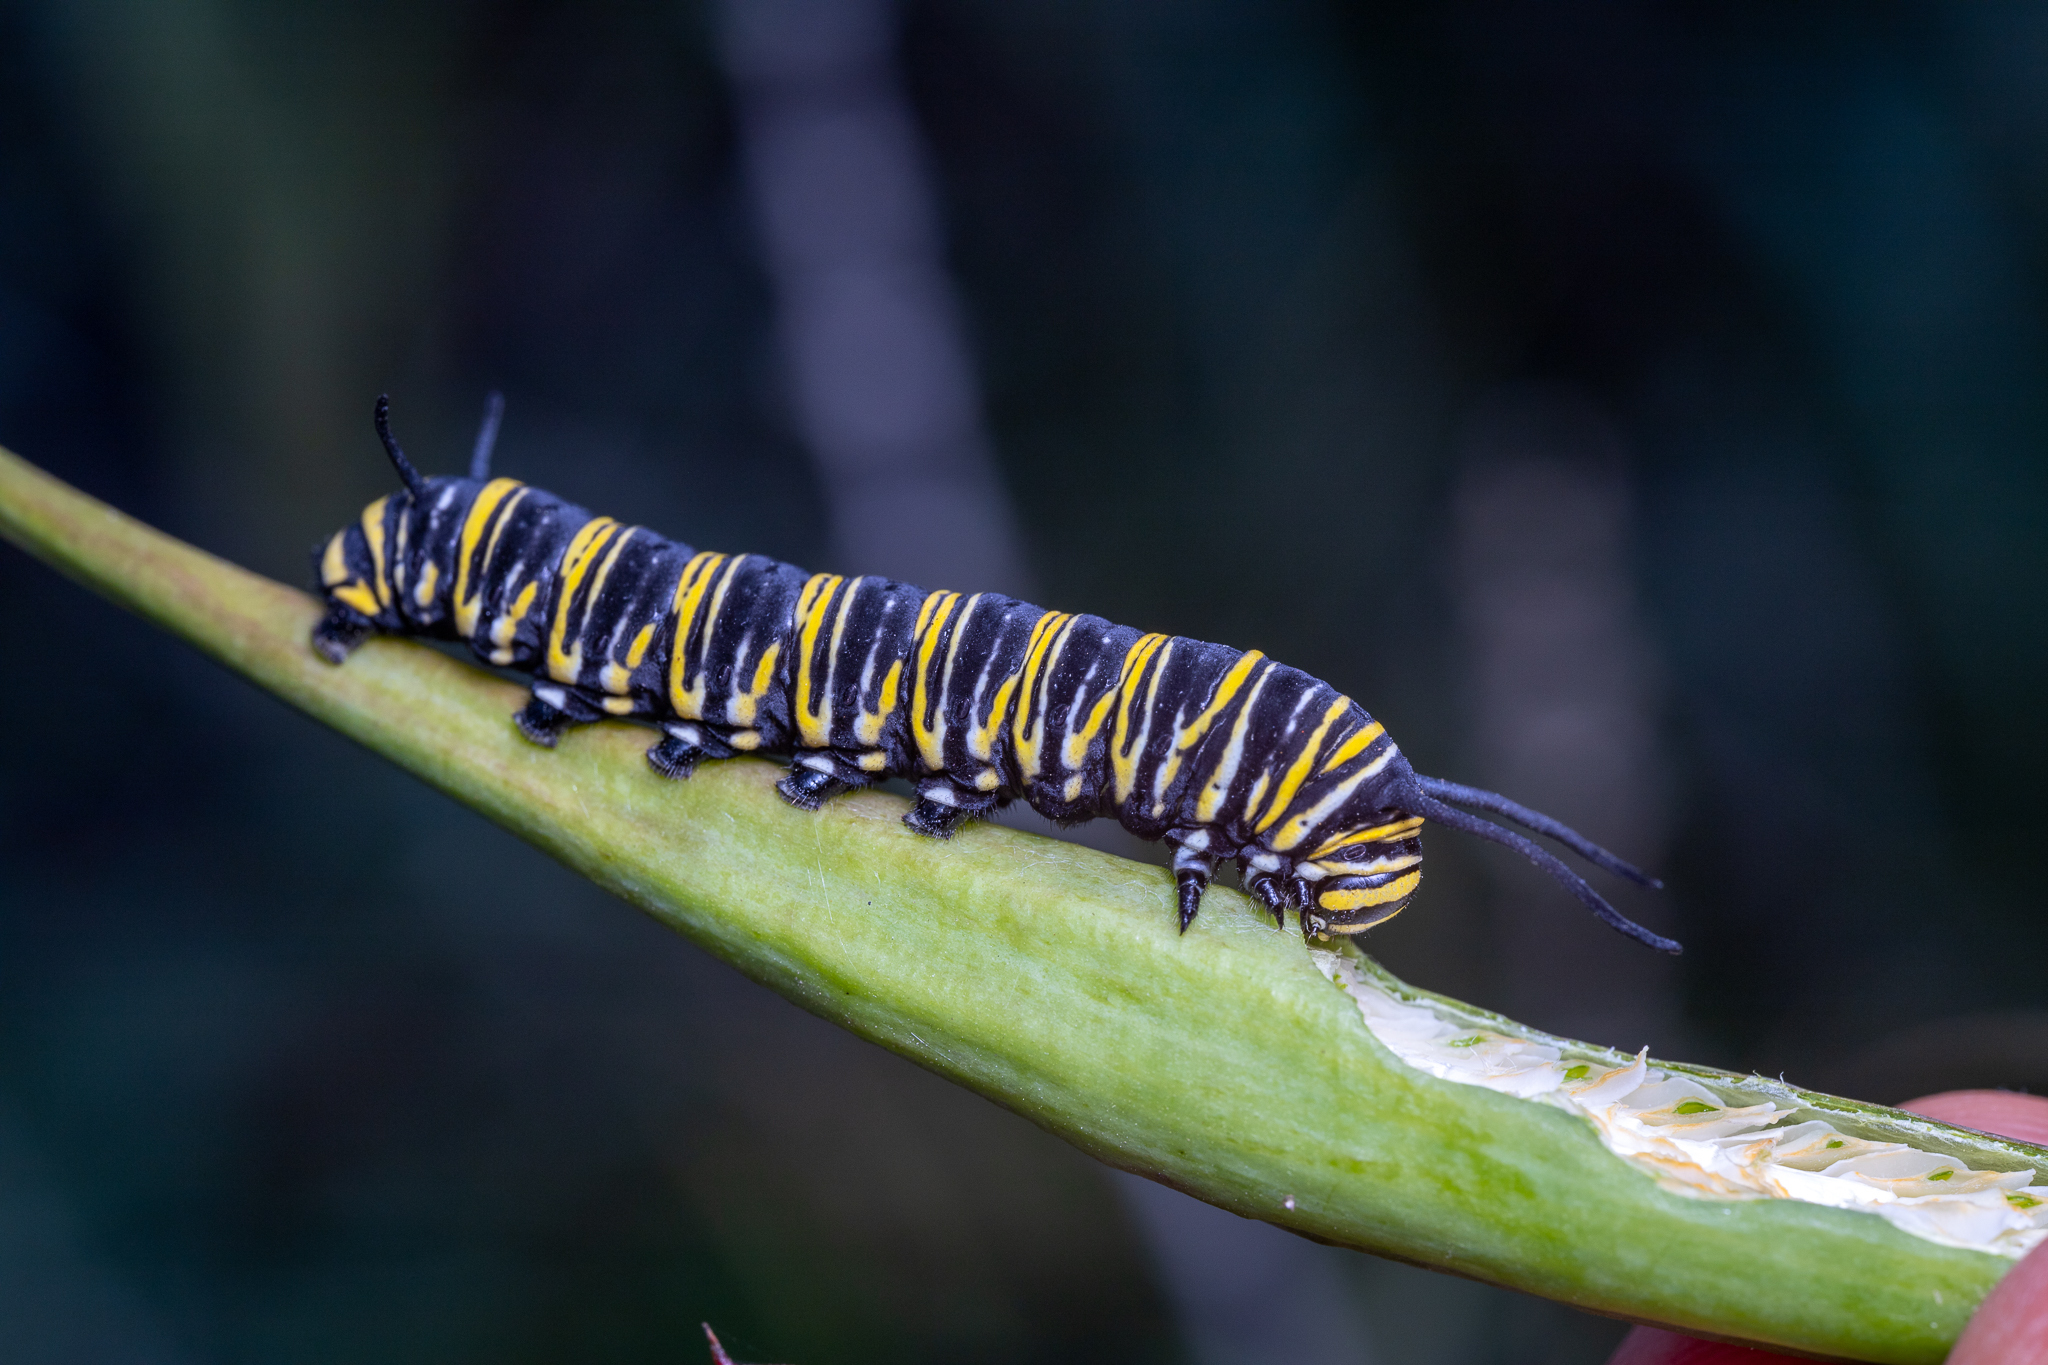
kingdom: Animalia
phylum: Arthropoda
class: Insecta
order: Lepidoptera
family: Nymphalidae
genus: Danaus
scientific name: Danaus plexippus
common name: Monarch
